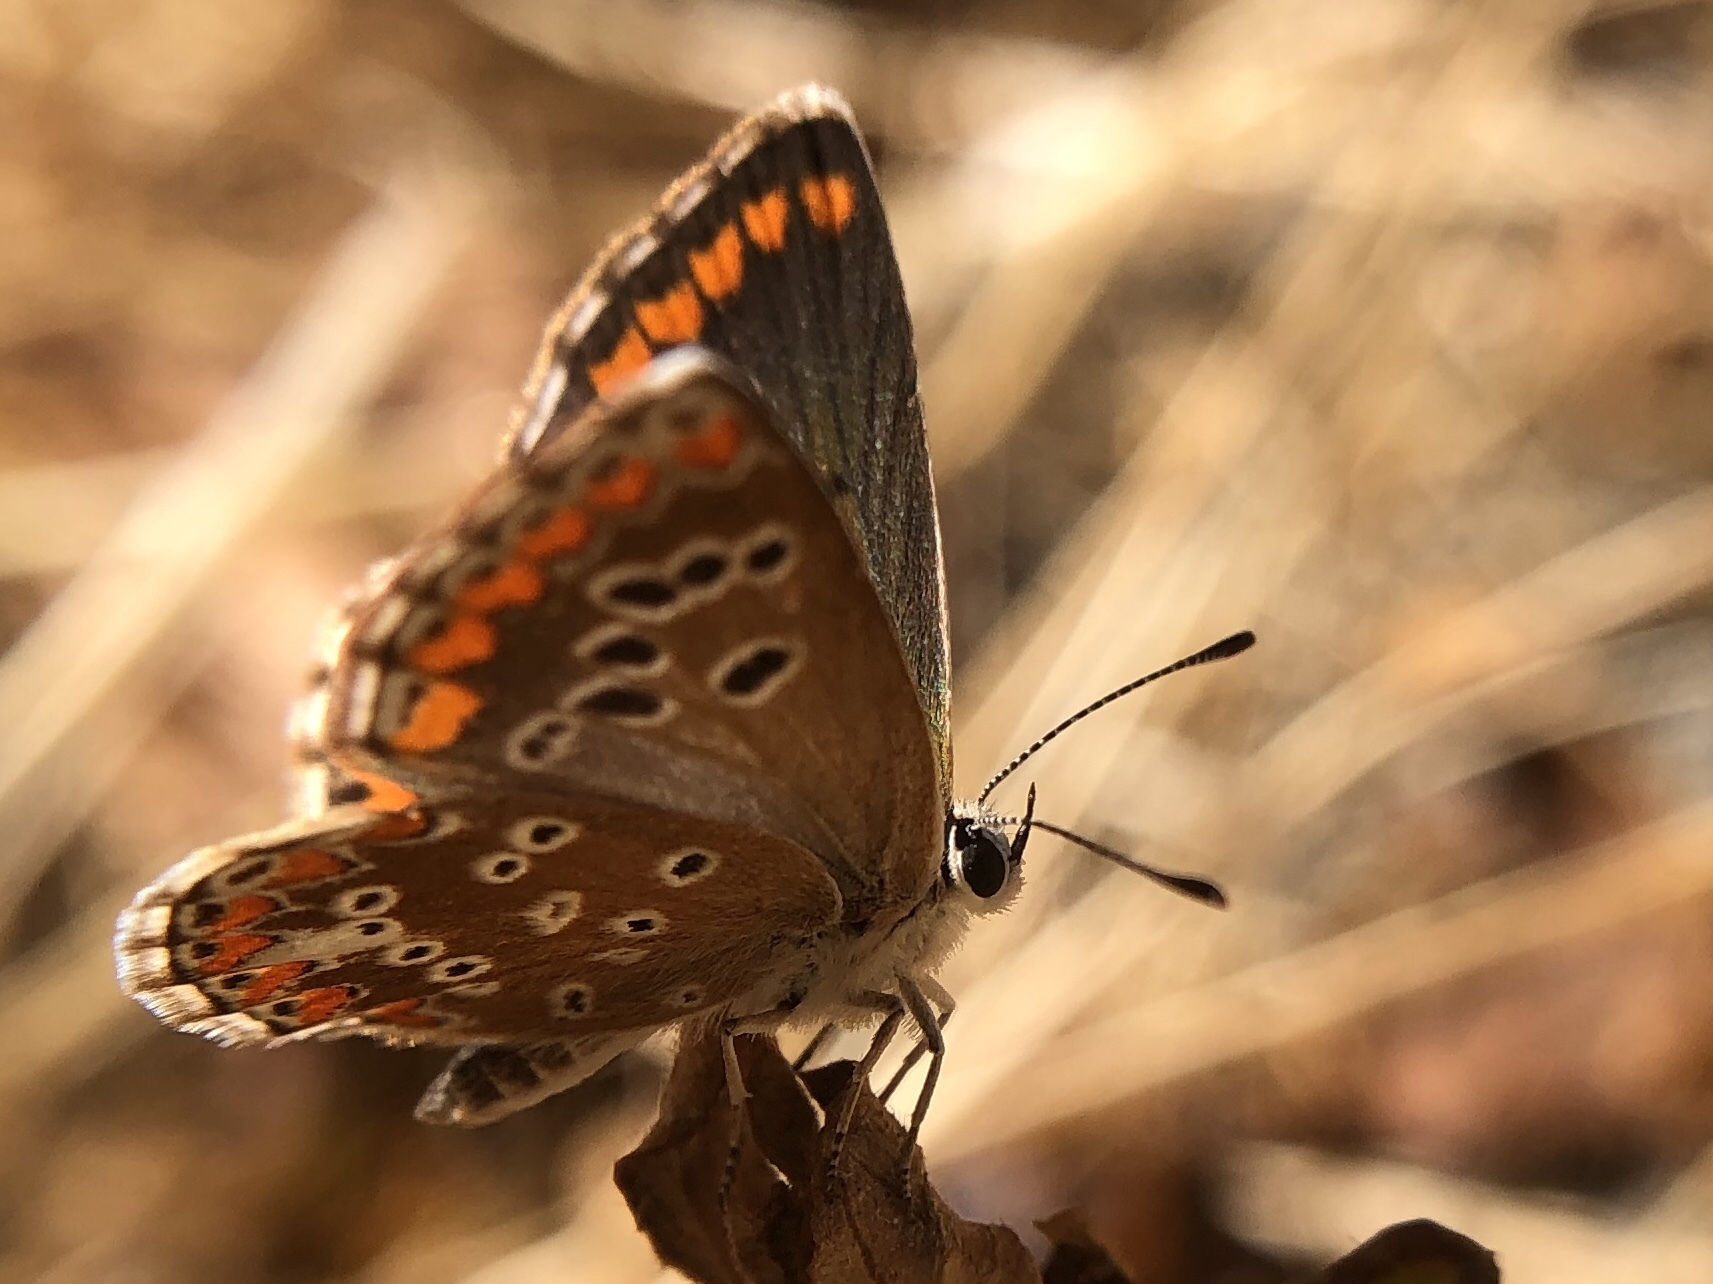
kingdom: Animalia
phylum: Arthropoda
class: Insecta
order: Lepidoptera
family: Lycaenidae
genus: Aricia
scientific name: Aricia cramera
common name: Eschscholtz´s brown  argus
